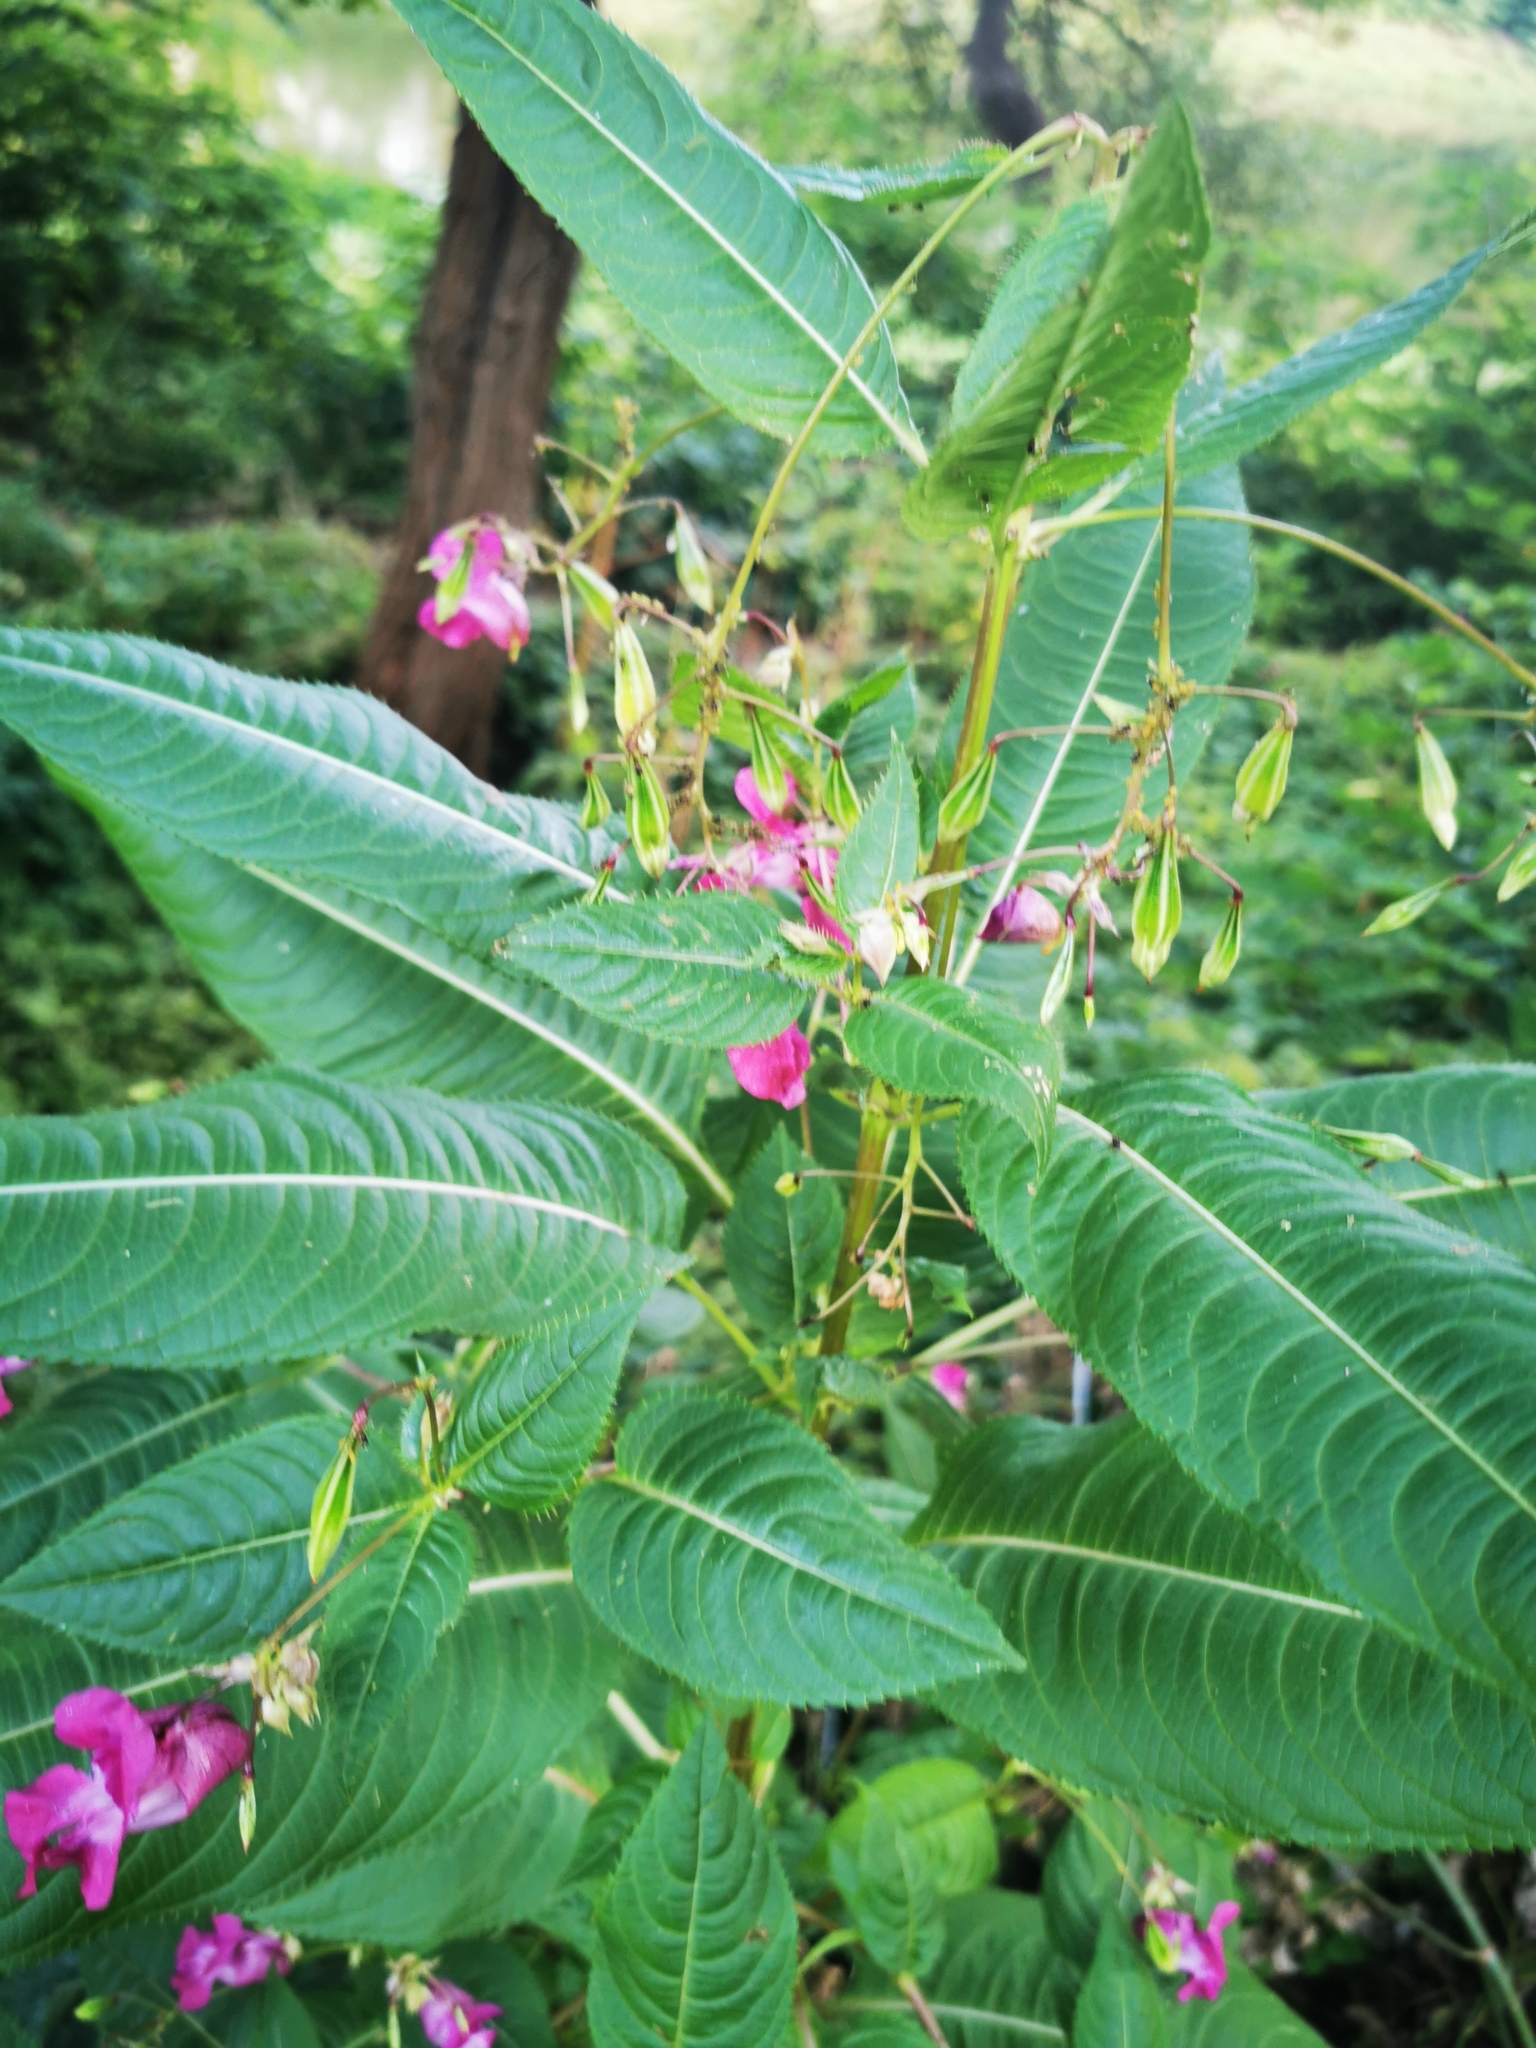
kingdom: Plantae
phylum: Tracheophyta
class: Magnoliopsida
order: Ericales
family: Balsaminaceae
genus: Impatiens
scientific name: Impatiens glandulifera
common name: Himalayan balsam
